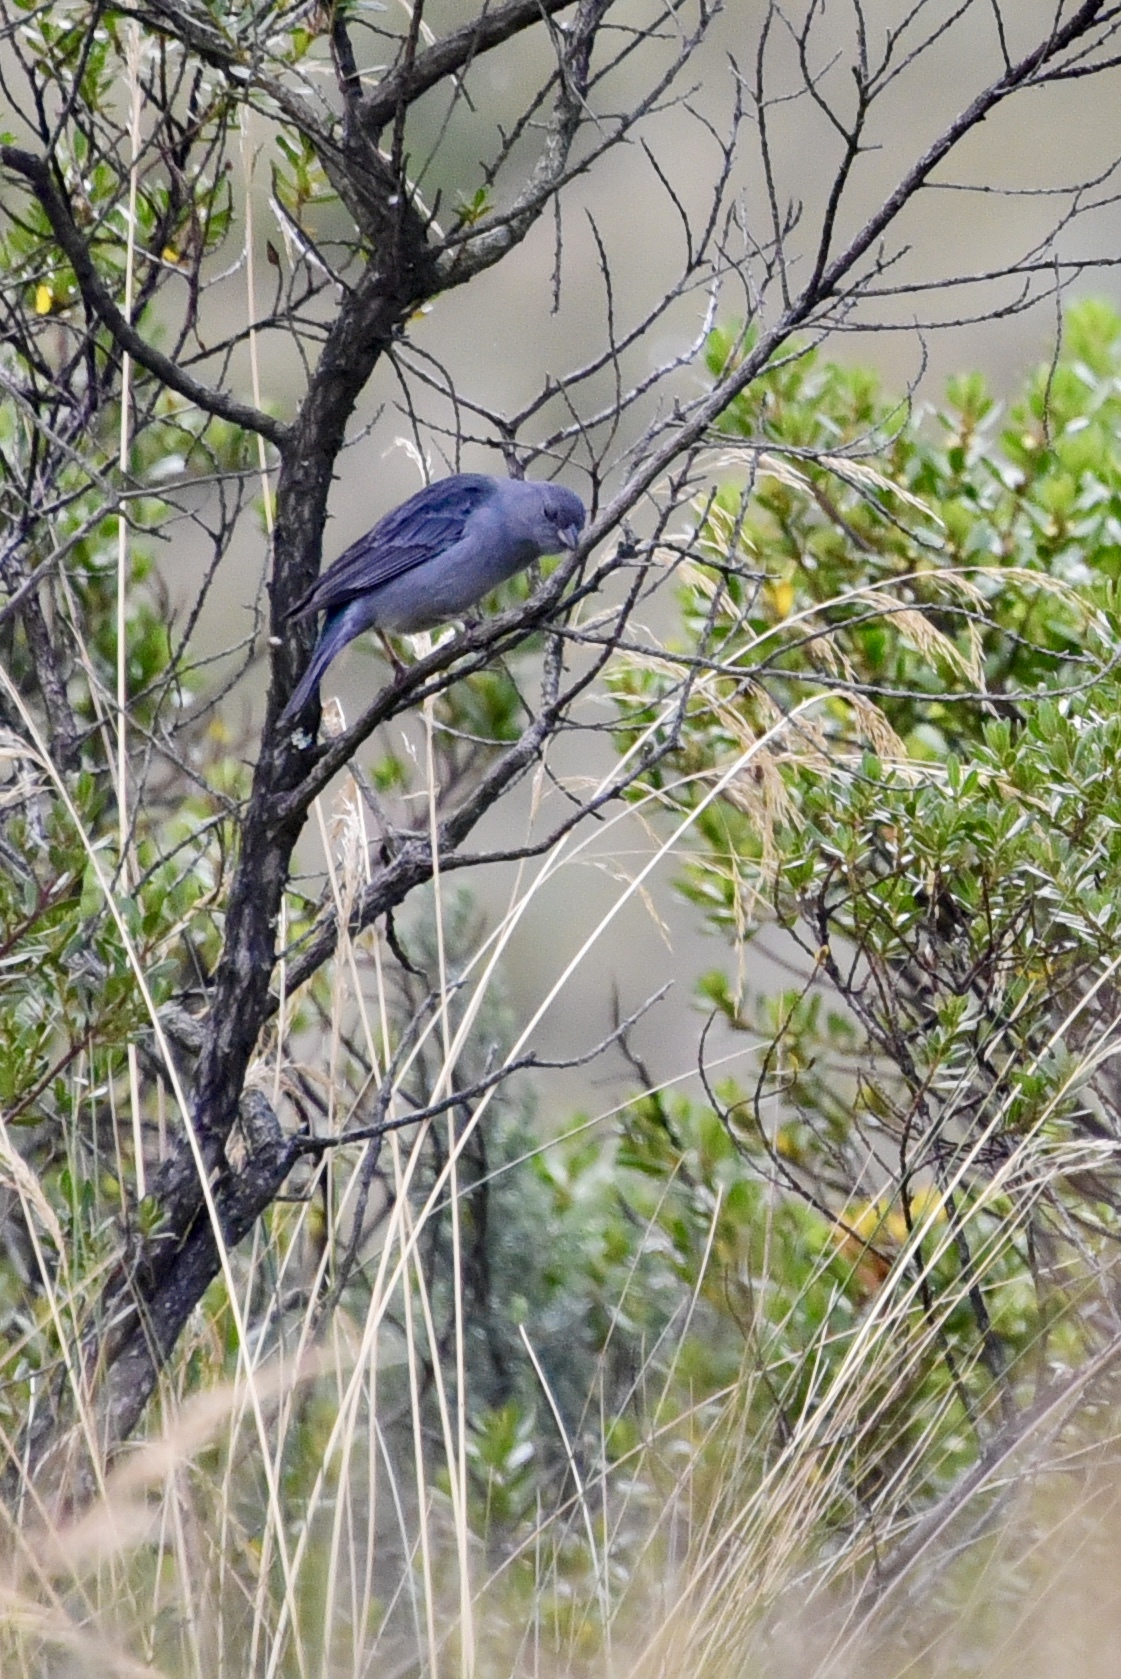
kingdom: Animalia
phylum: Chordata
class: Aves
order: Passeriformes
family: Thraupidae
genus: Geospizopsis
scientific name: Geospizopsis unicolor
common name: Plumbeous sierra-finch
